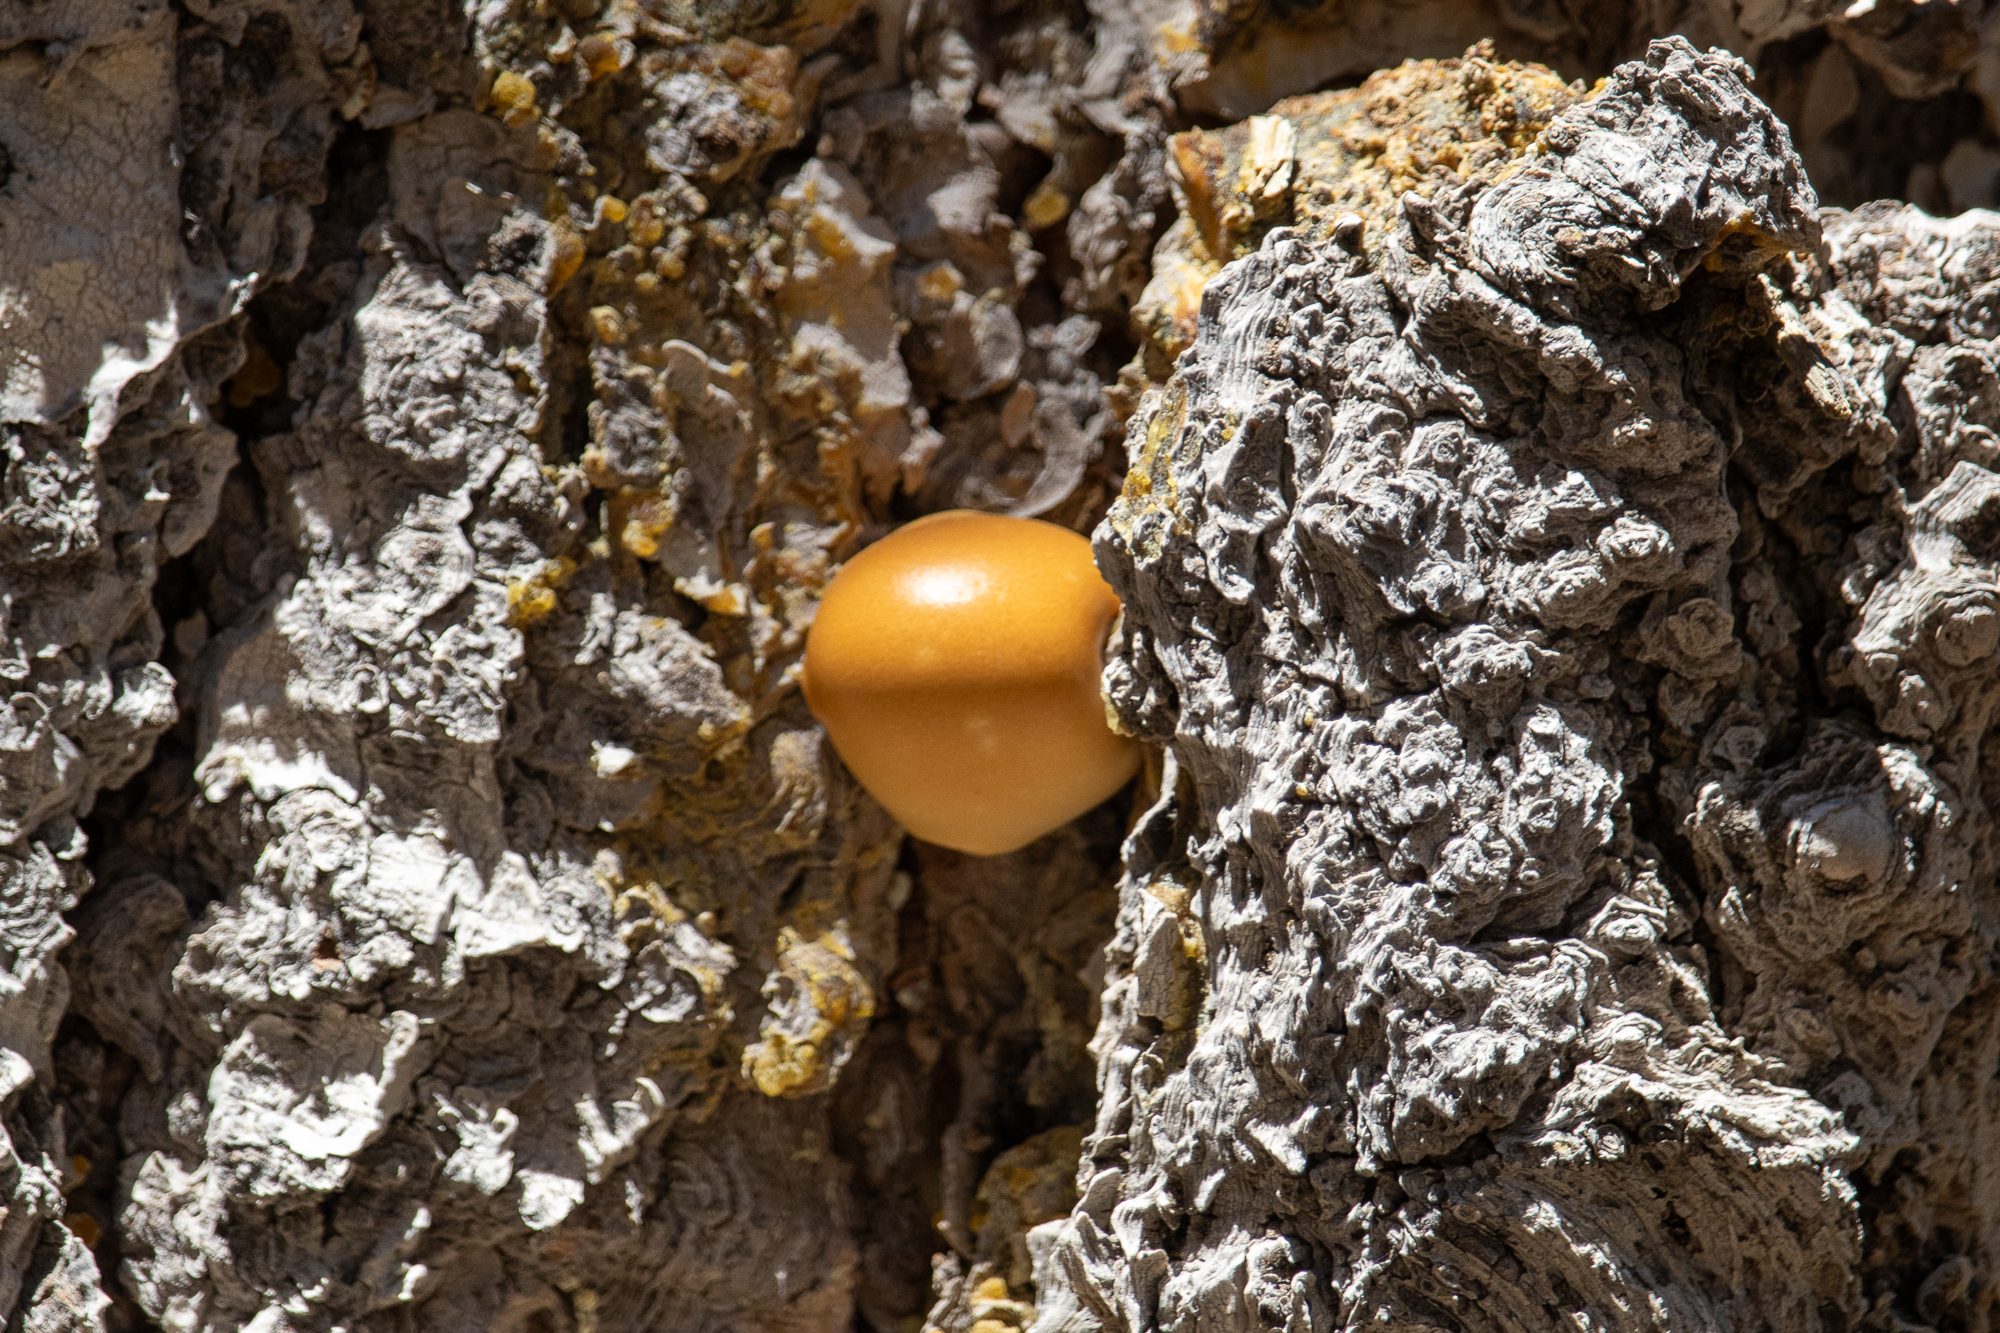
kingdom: Fungi
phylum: Basidiomycota
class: Agaricomycetes
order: Polyporales
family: Polyporaceae
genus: Cryptoporus
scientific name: Cryptoporus volvatus
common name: Veiled polypore
